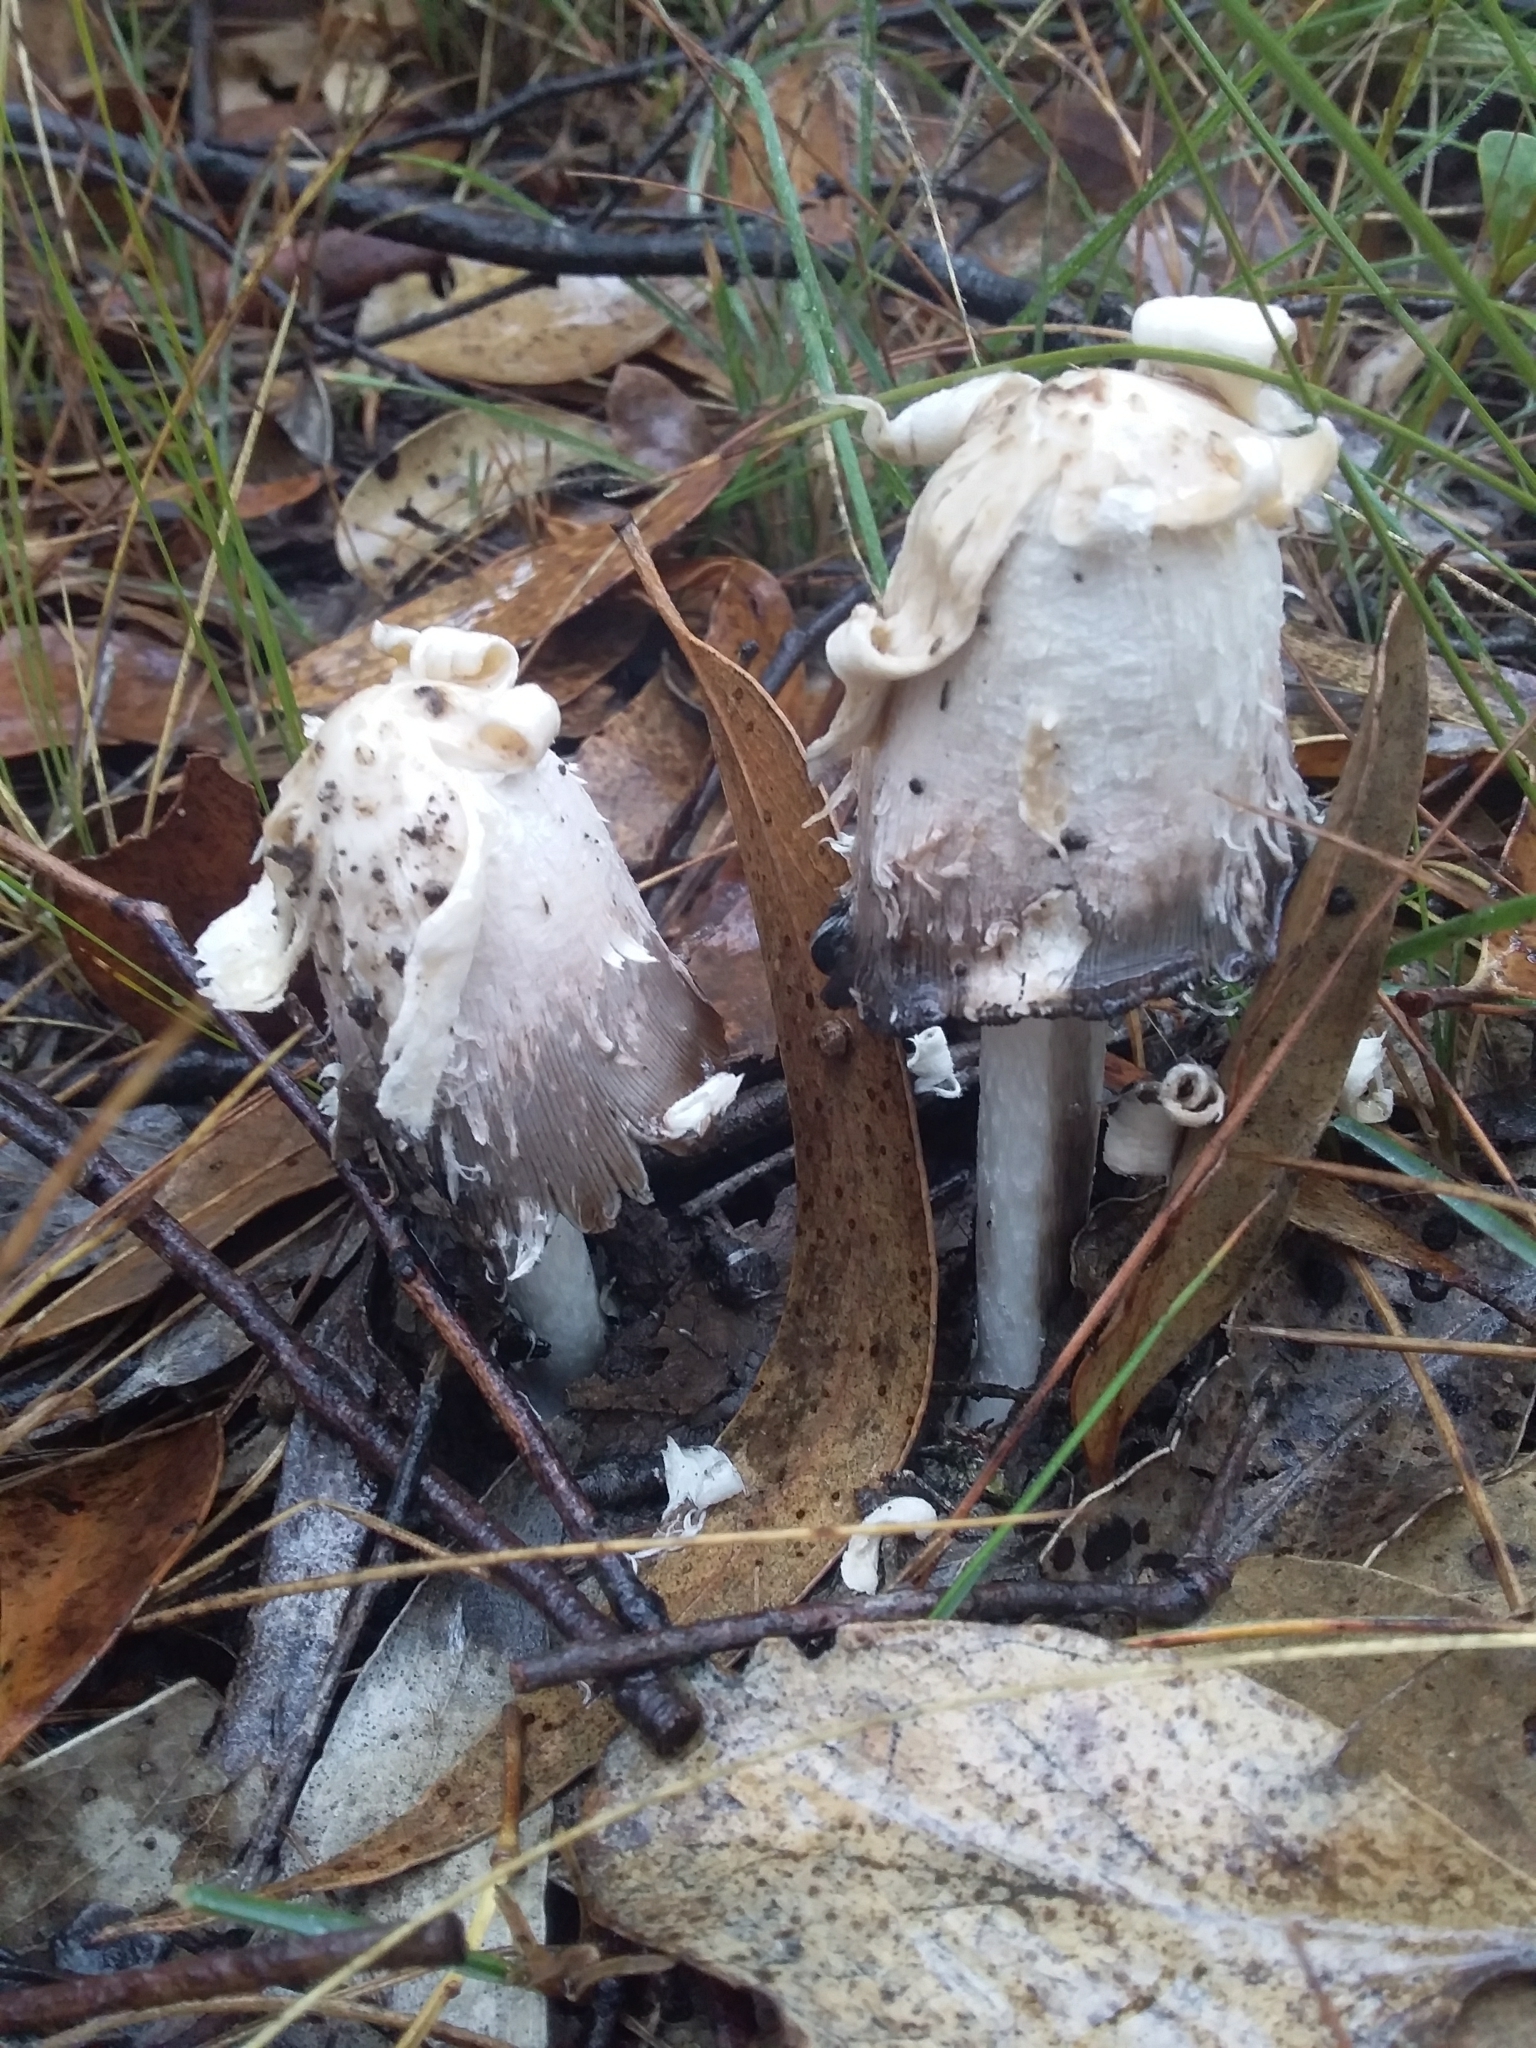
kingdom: Fungi
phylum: Basidiomycota
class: Agaricomycetes
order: Agaricales
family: Agaricaceae
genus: Coprinus
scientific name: Coprinus comatus
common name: Lawyer's wig
